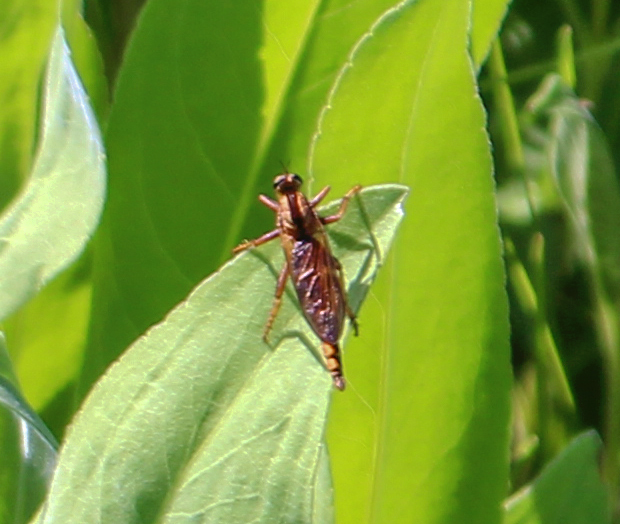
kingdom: Animalia
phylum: Arthropoda
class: Insecta
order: Diptera
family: Asilidae
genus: Asilus
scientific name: Asilus sericeus
